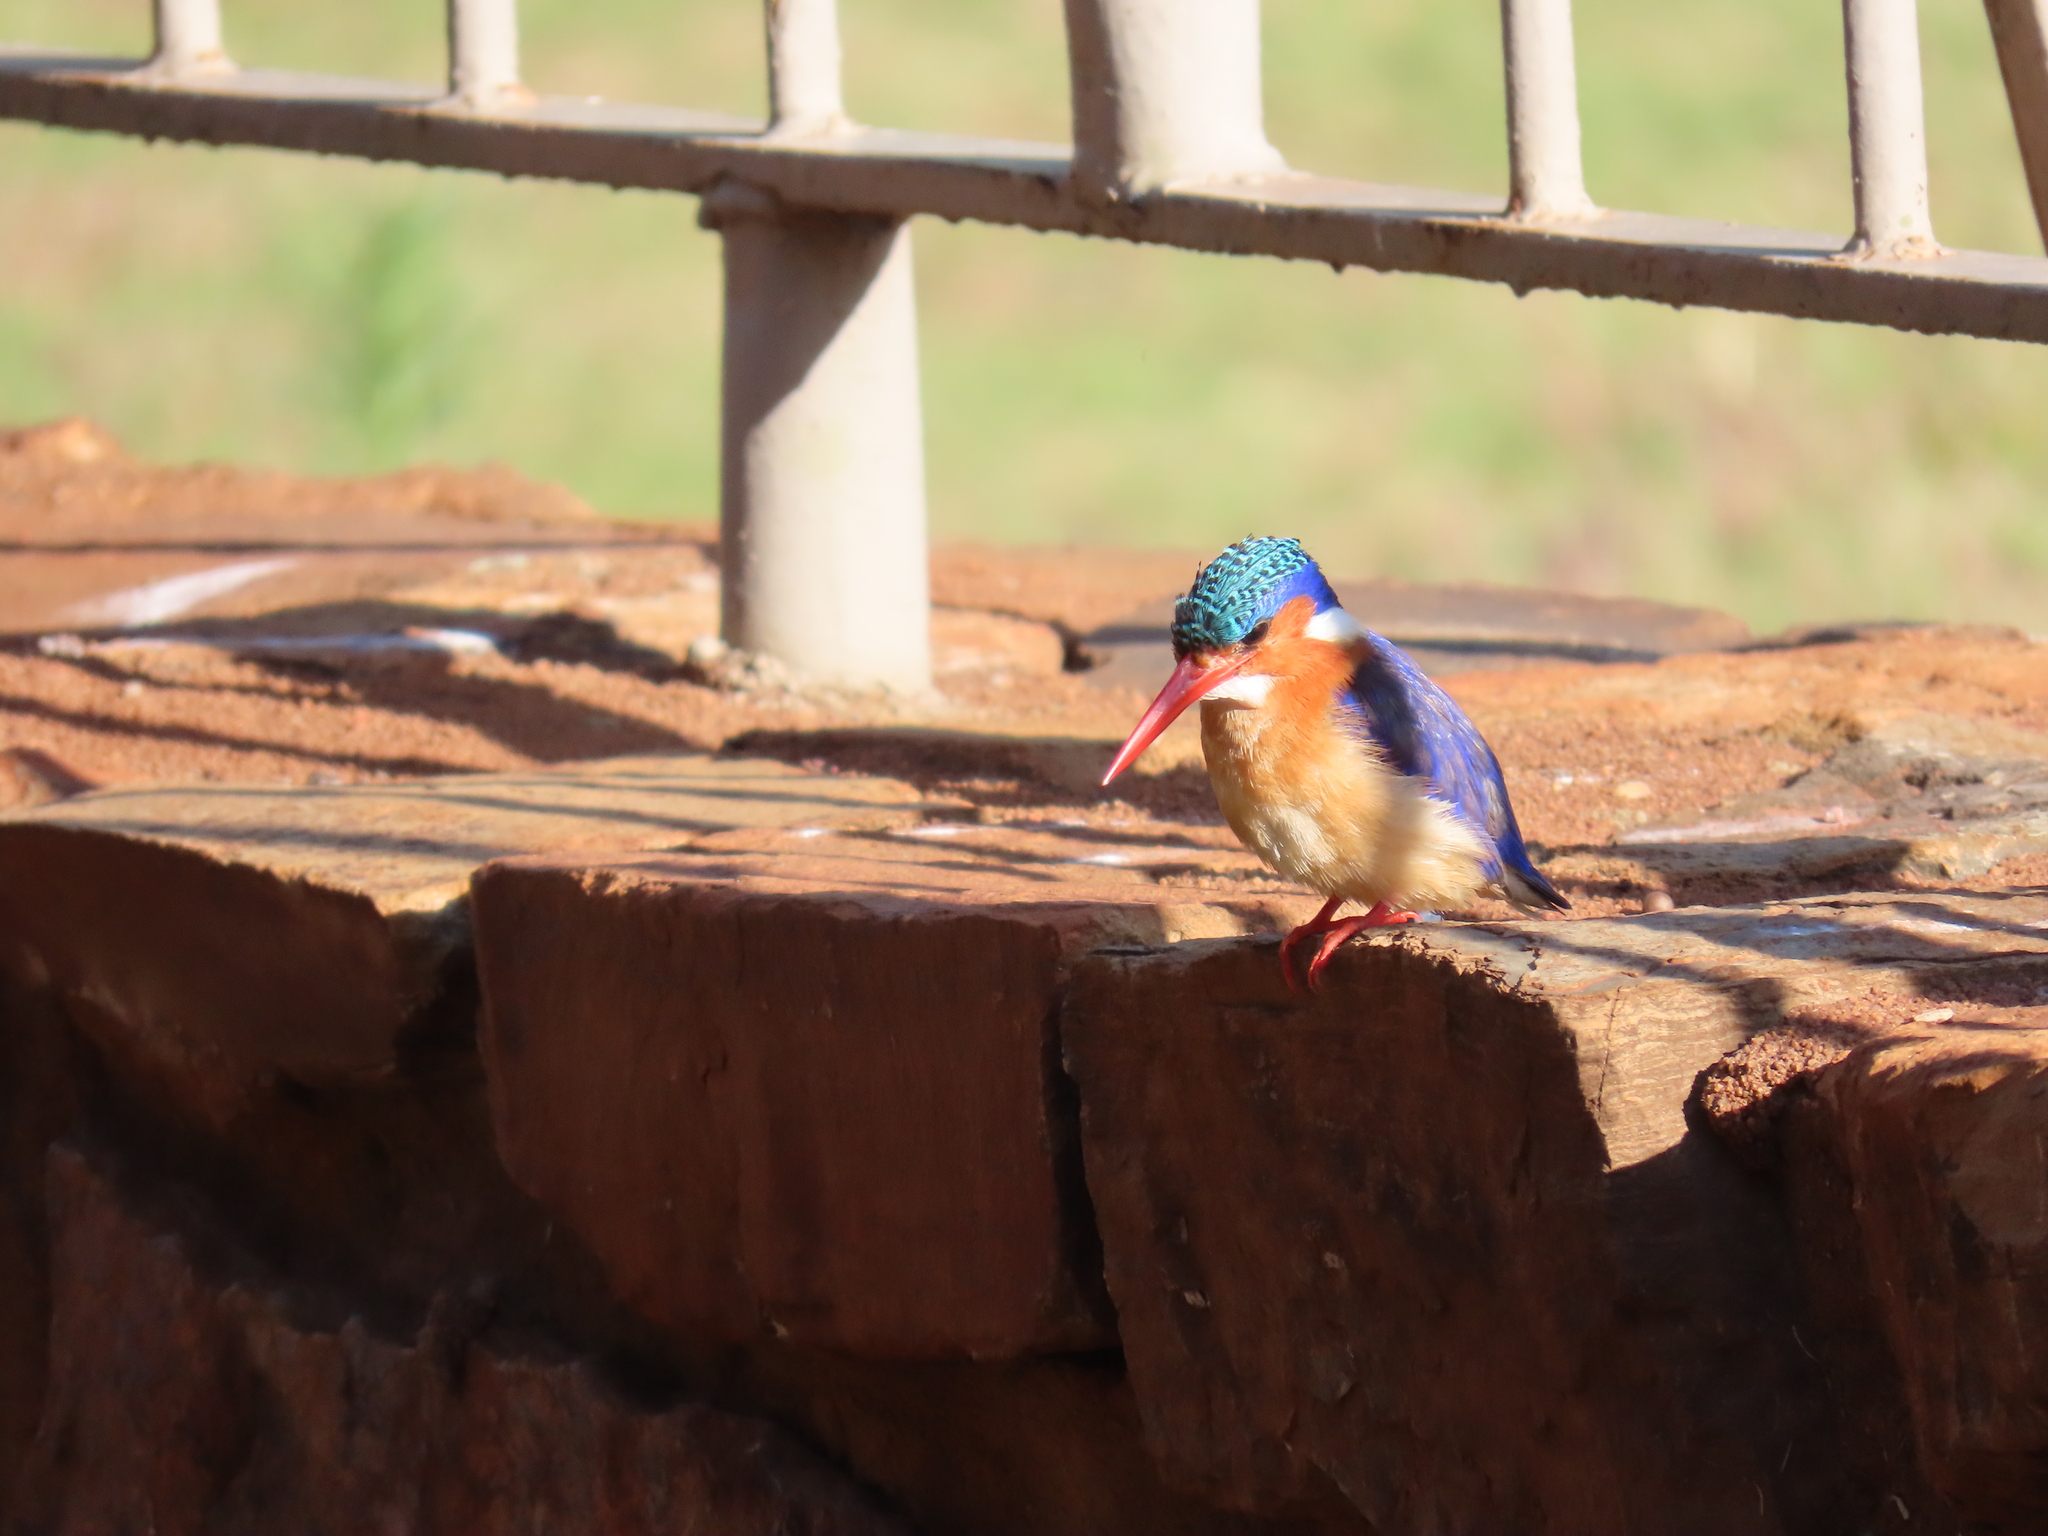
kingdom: Animalia
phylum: Chordata
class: Aves
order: Coraciiformes
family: Alcedinidae
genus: Corythornis
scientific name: Corythornis cristatus
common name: Malachite kingfisher
